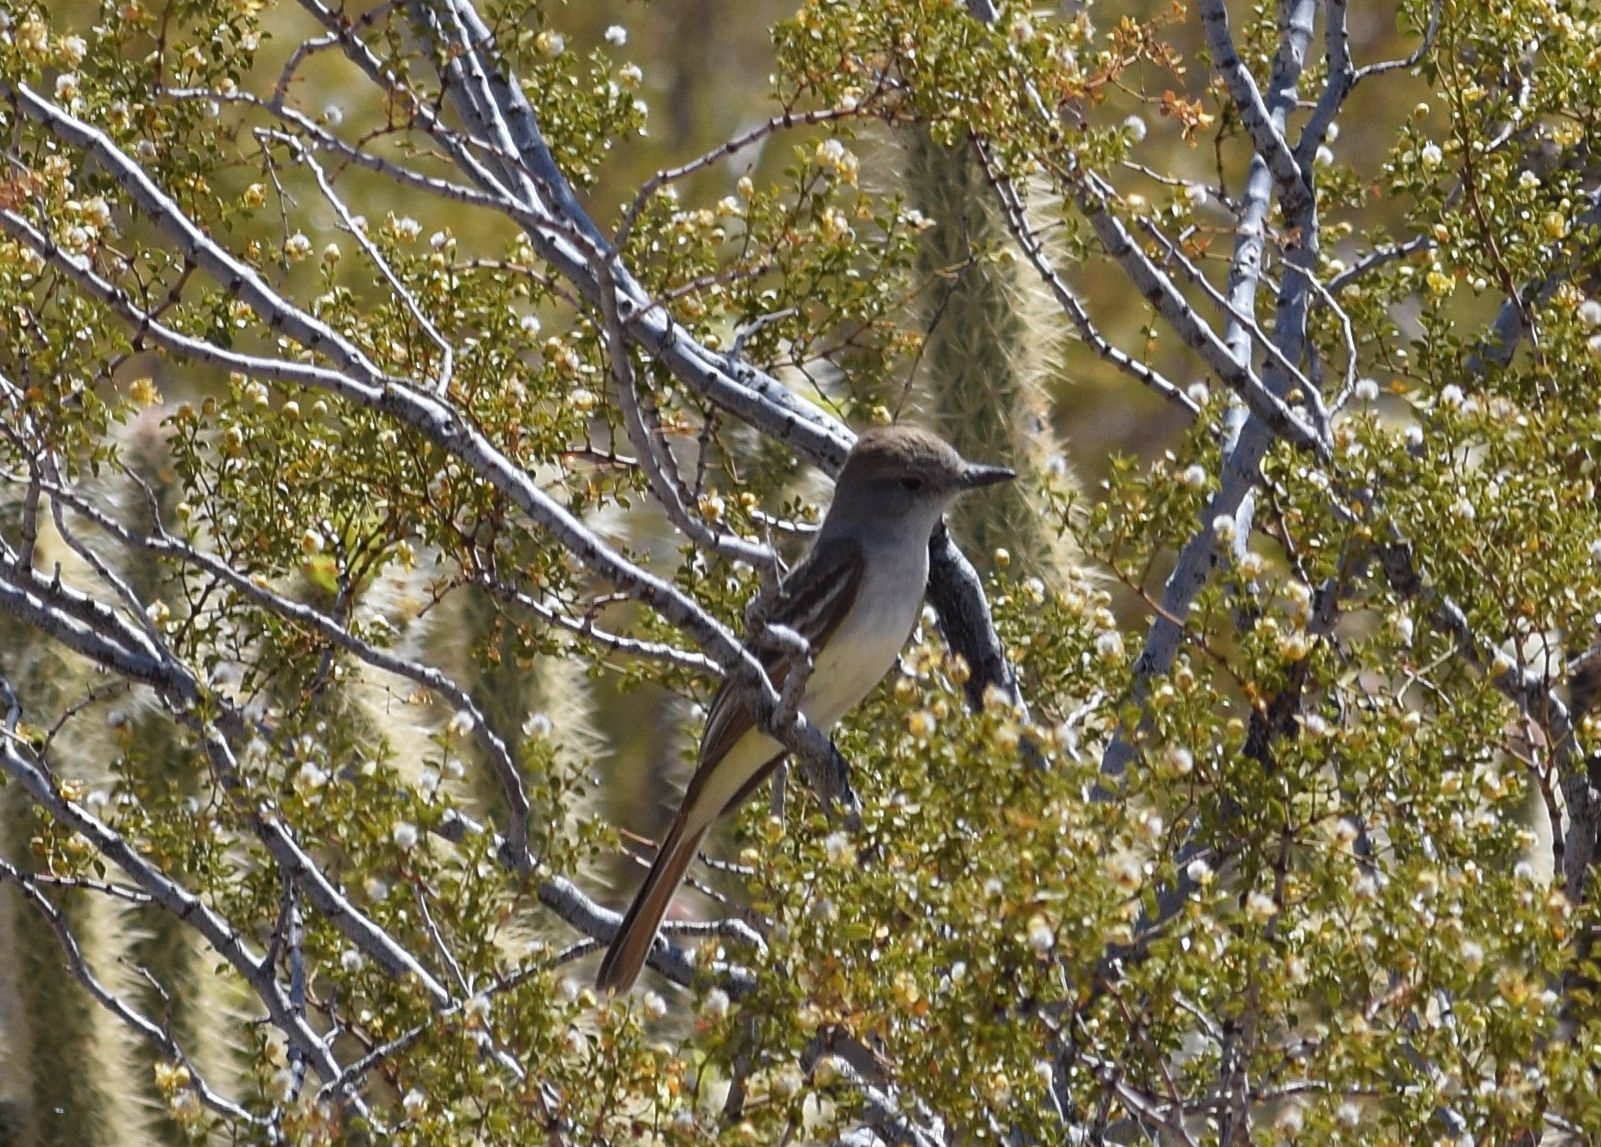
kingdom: Animalia
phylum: Chordata
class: Aves
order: Passeriformes
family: Tyrannidae
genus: Myiarchus
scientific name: Myiarchus cinerascens
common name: Ash-throated flycatcher
